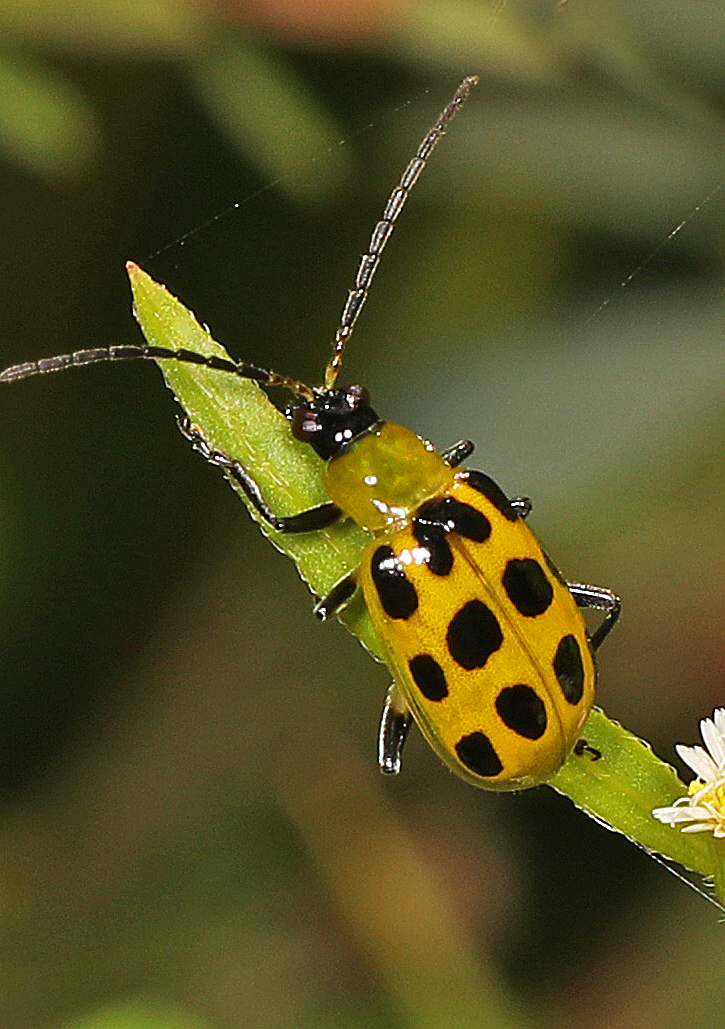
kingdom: Animalia
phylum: Arthropoda
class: Insecta
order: Coleoptera
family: Chrysomelidae
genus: Diabrotica
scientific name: Diabrotica undecimpunctata
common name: Spotted cucumber beetle
